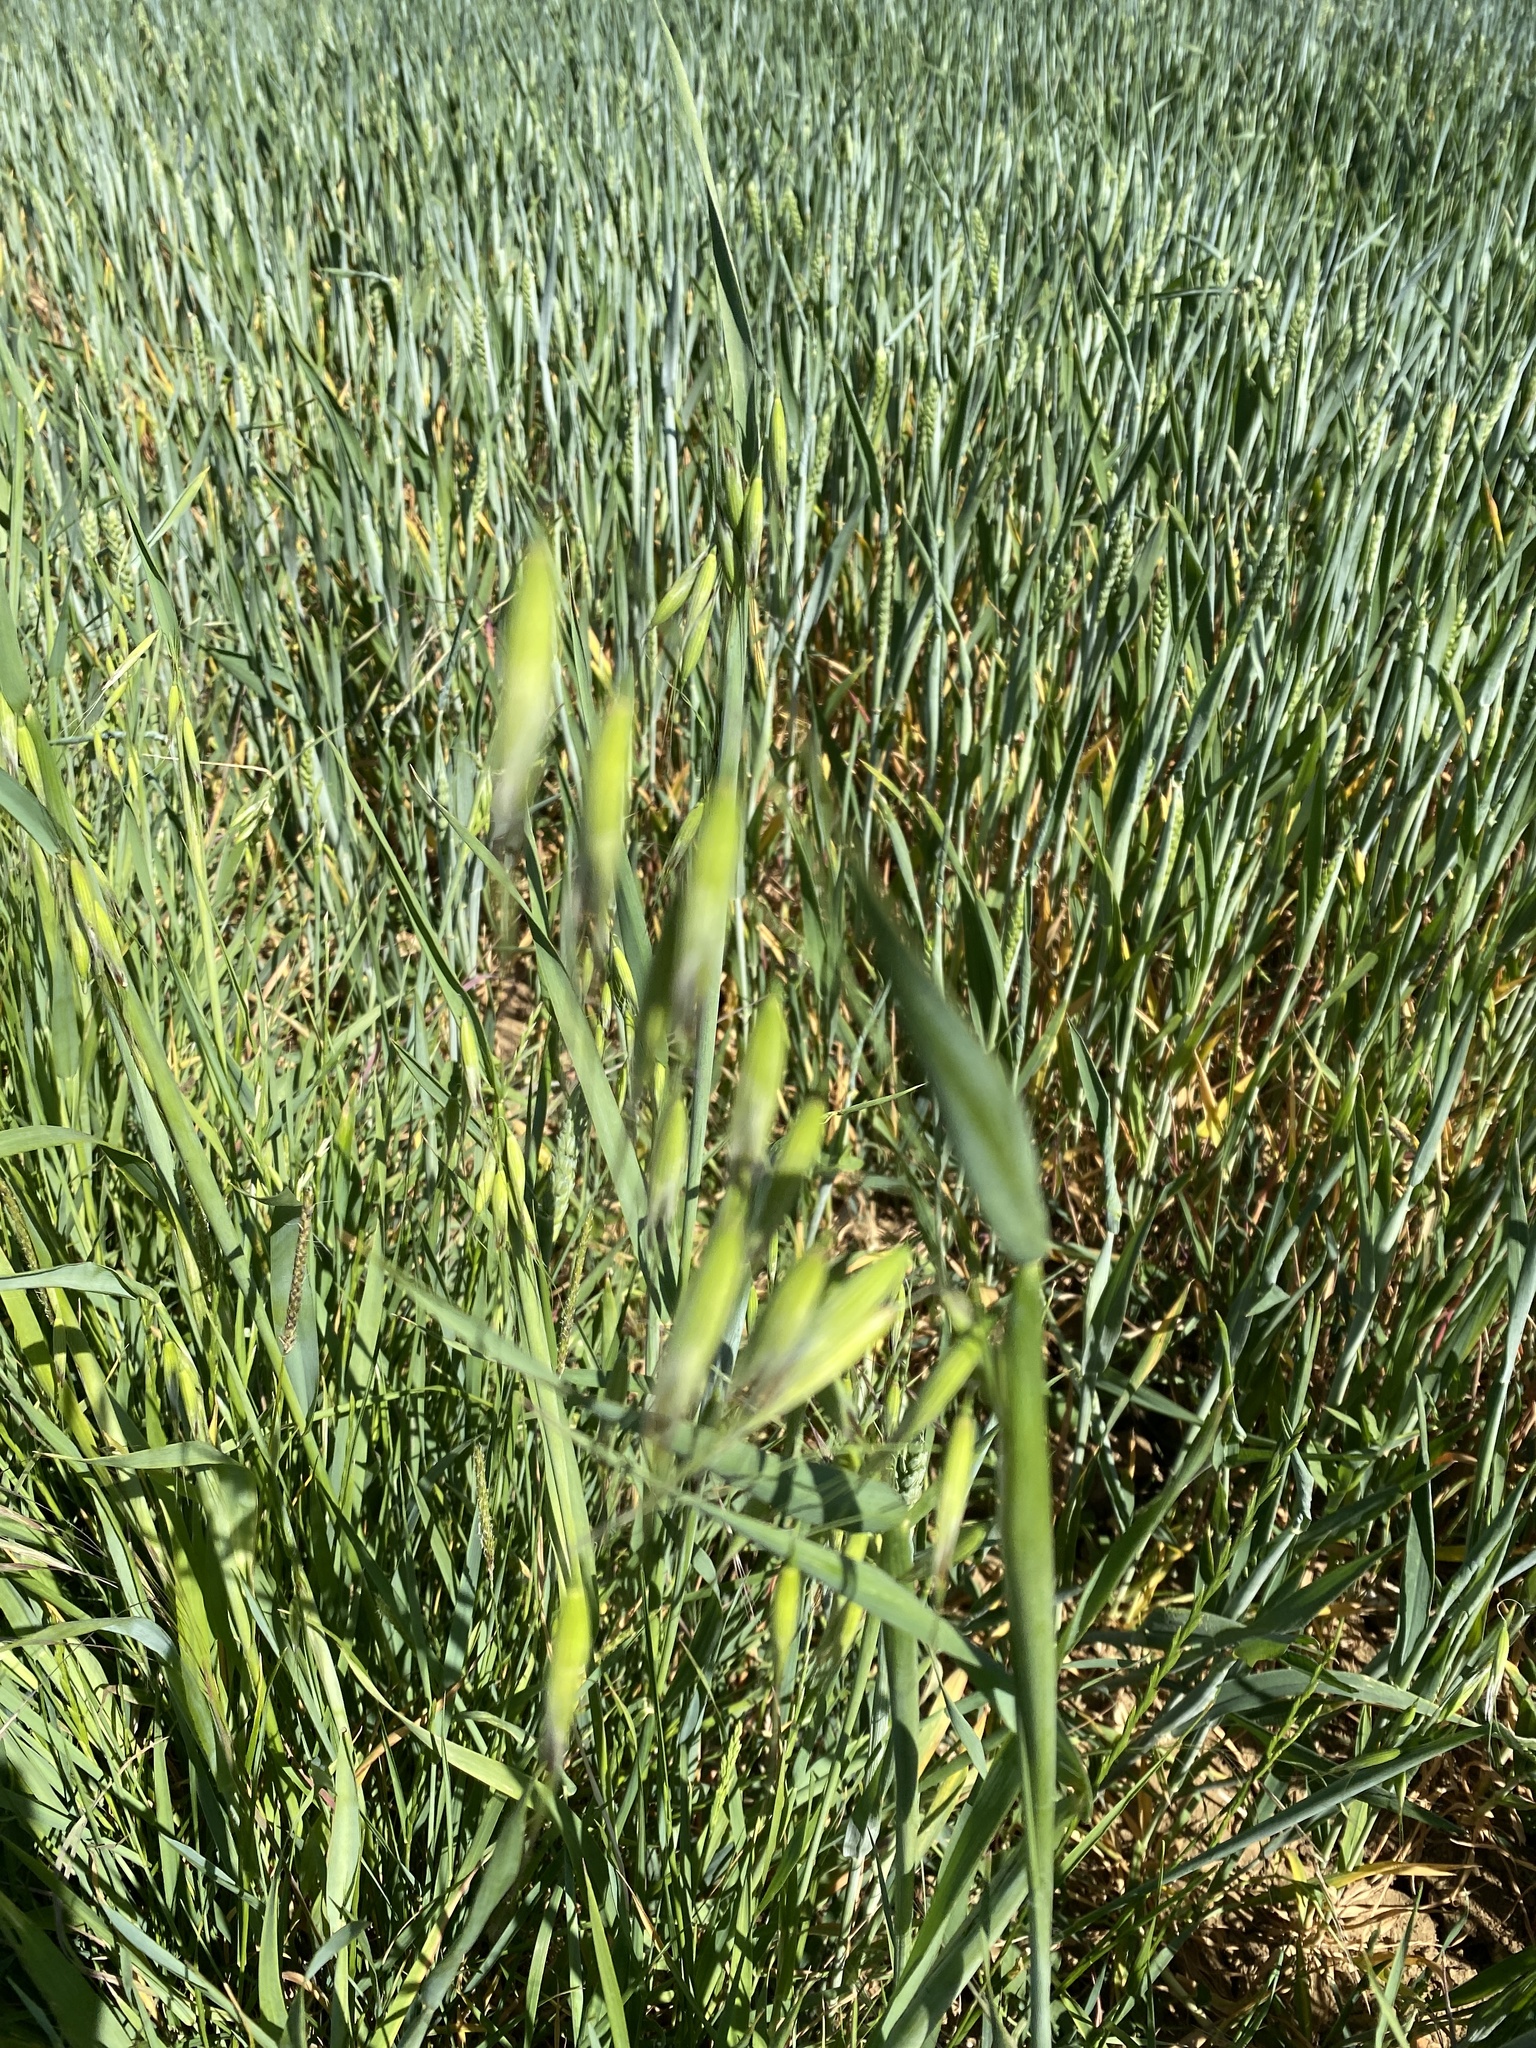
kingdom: Plantae
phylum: Tracheophyta
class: Liliopsida
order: Poales
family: Poaceae
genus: Avena
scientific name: Avena fatua
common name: Wild oat
